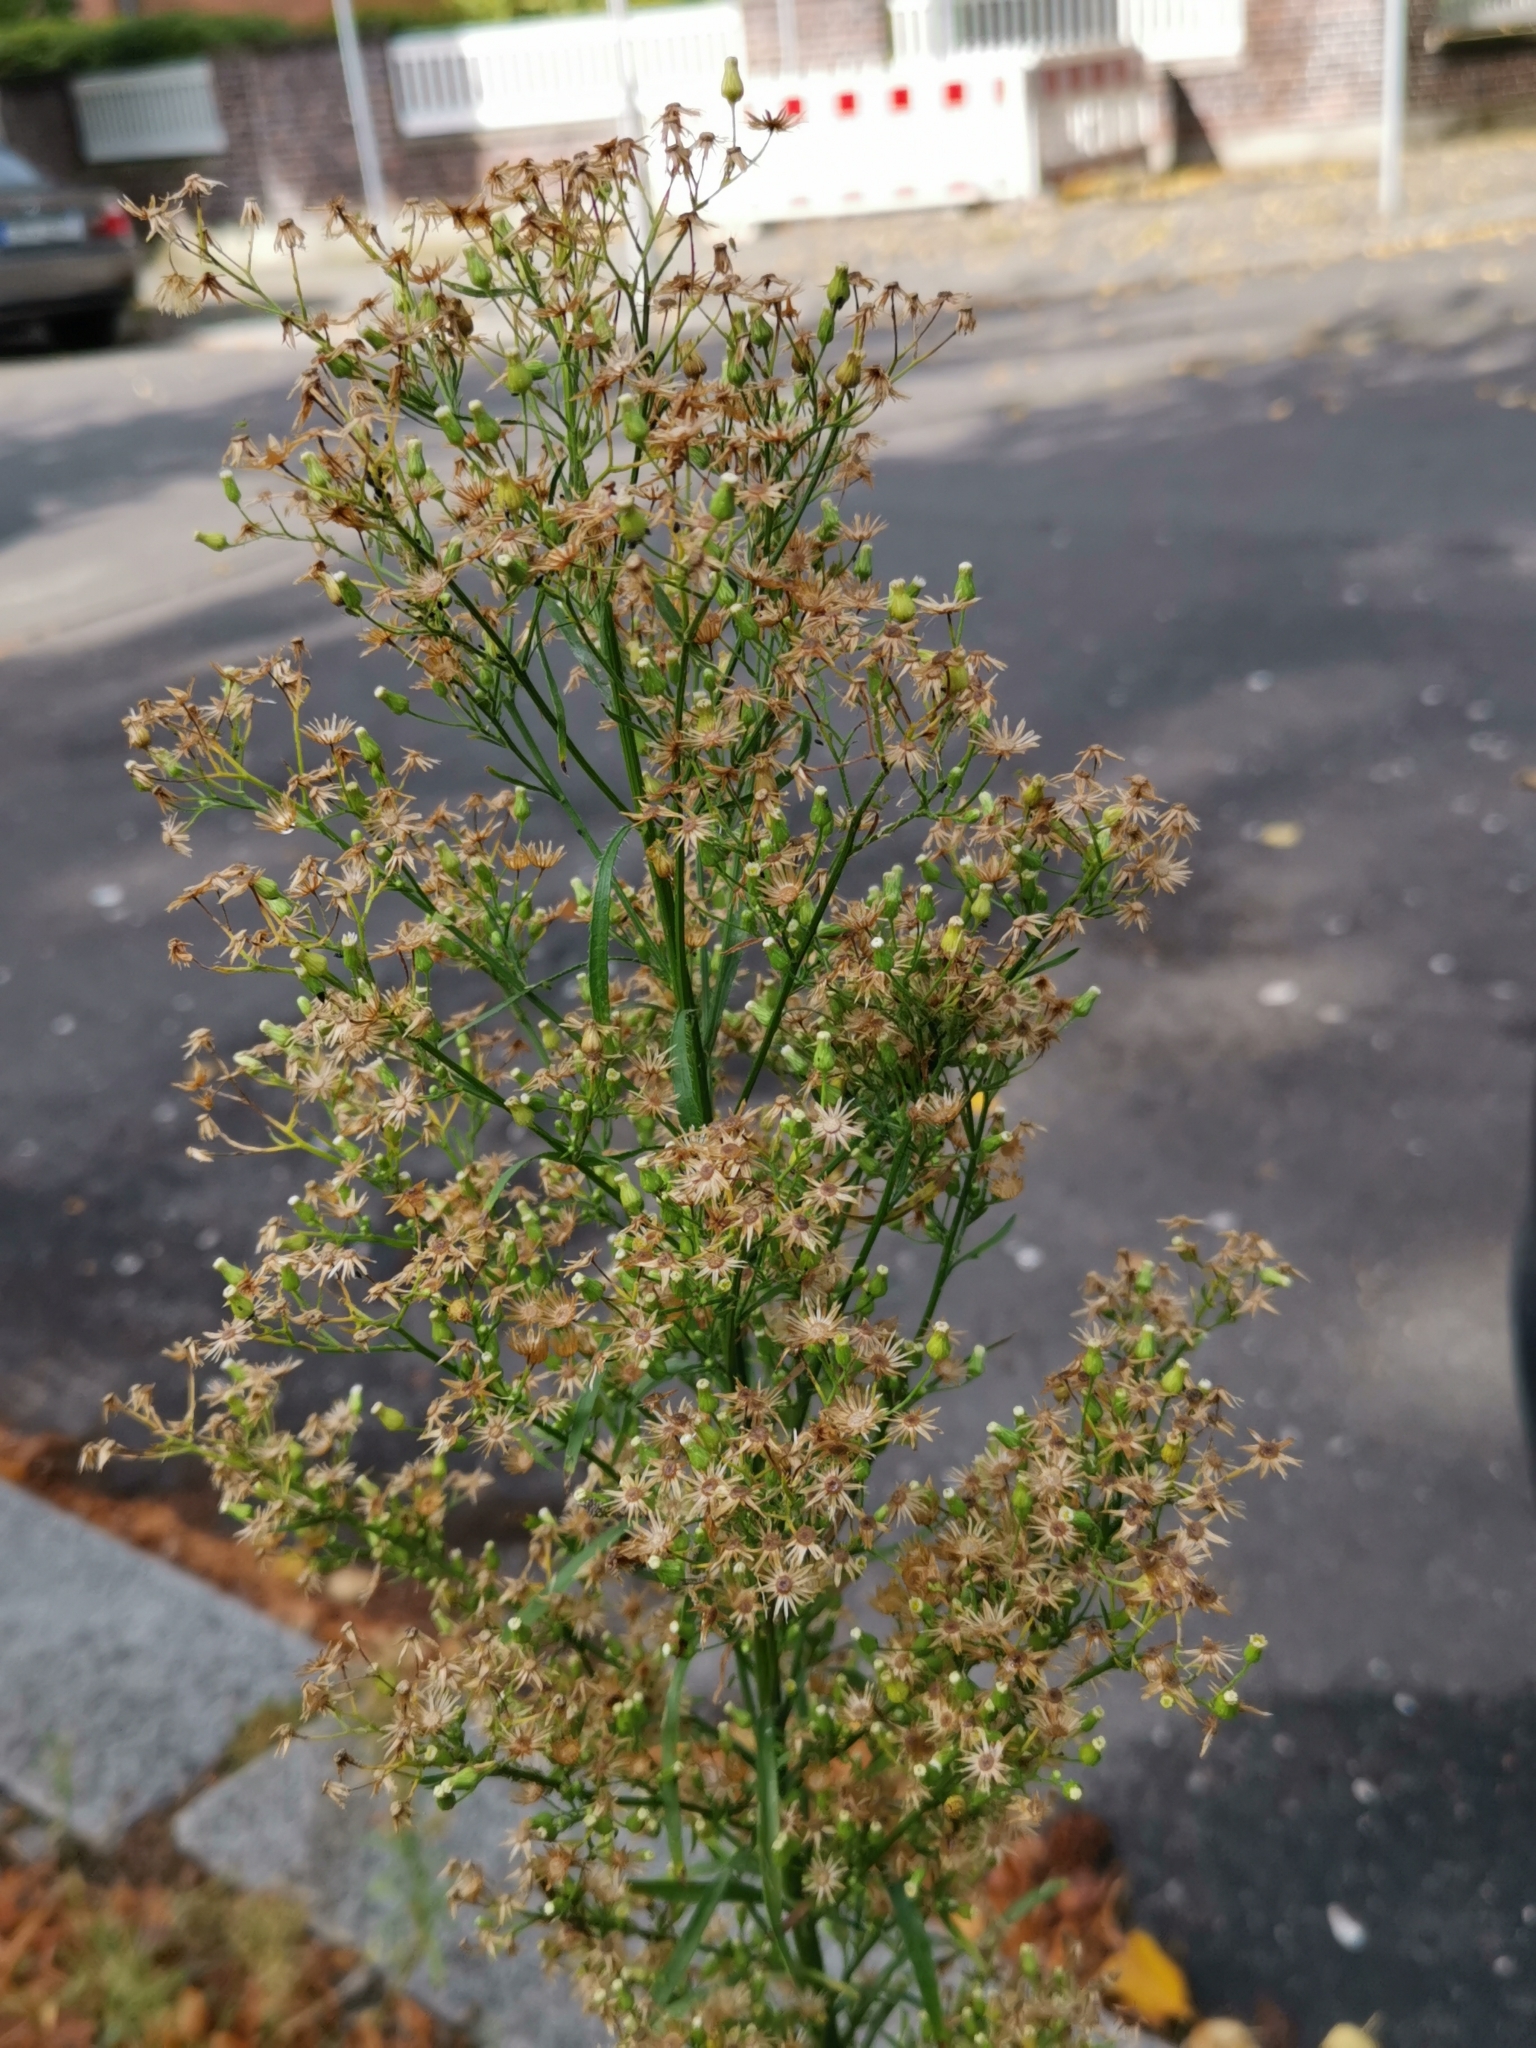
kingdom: Plantae
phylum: Tracheophyta
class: Magnoliopsida
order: Asterales
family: Asteraceae
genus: Erigeron
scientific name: Erigeron canadensis
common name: Canadian fleabane
